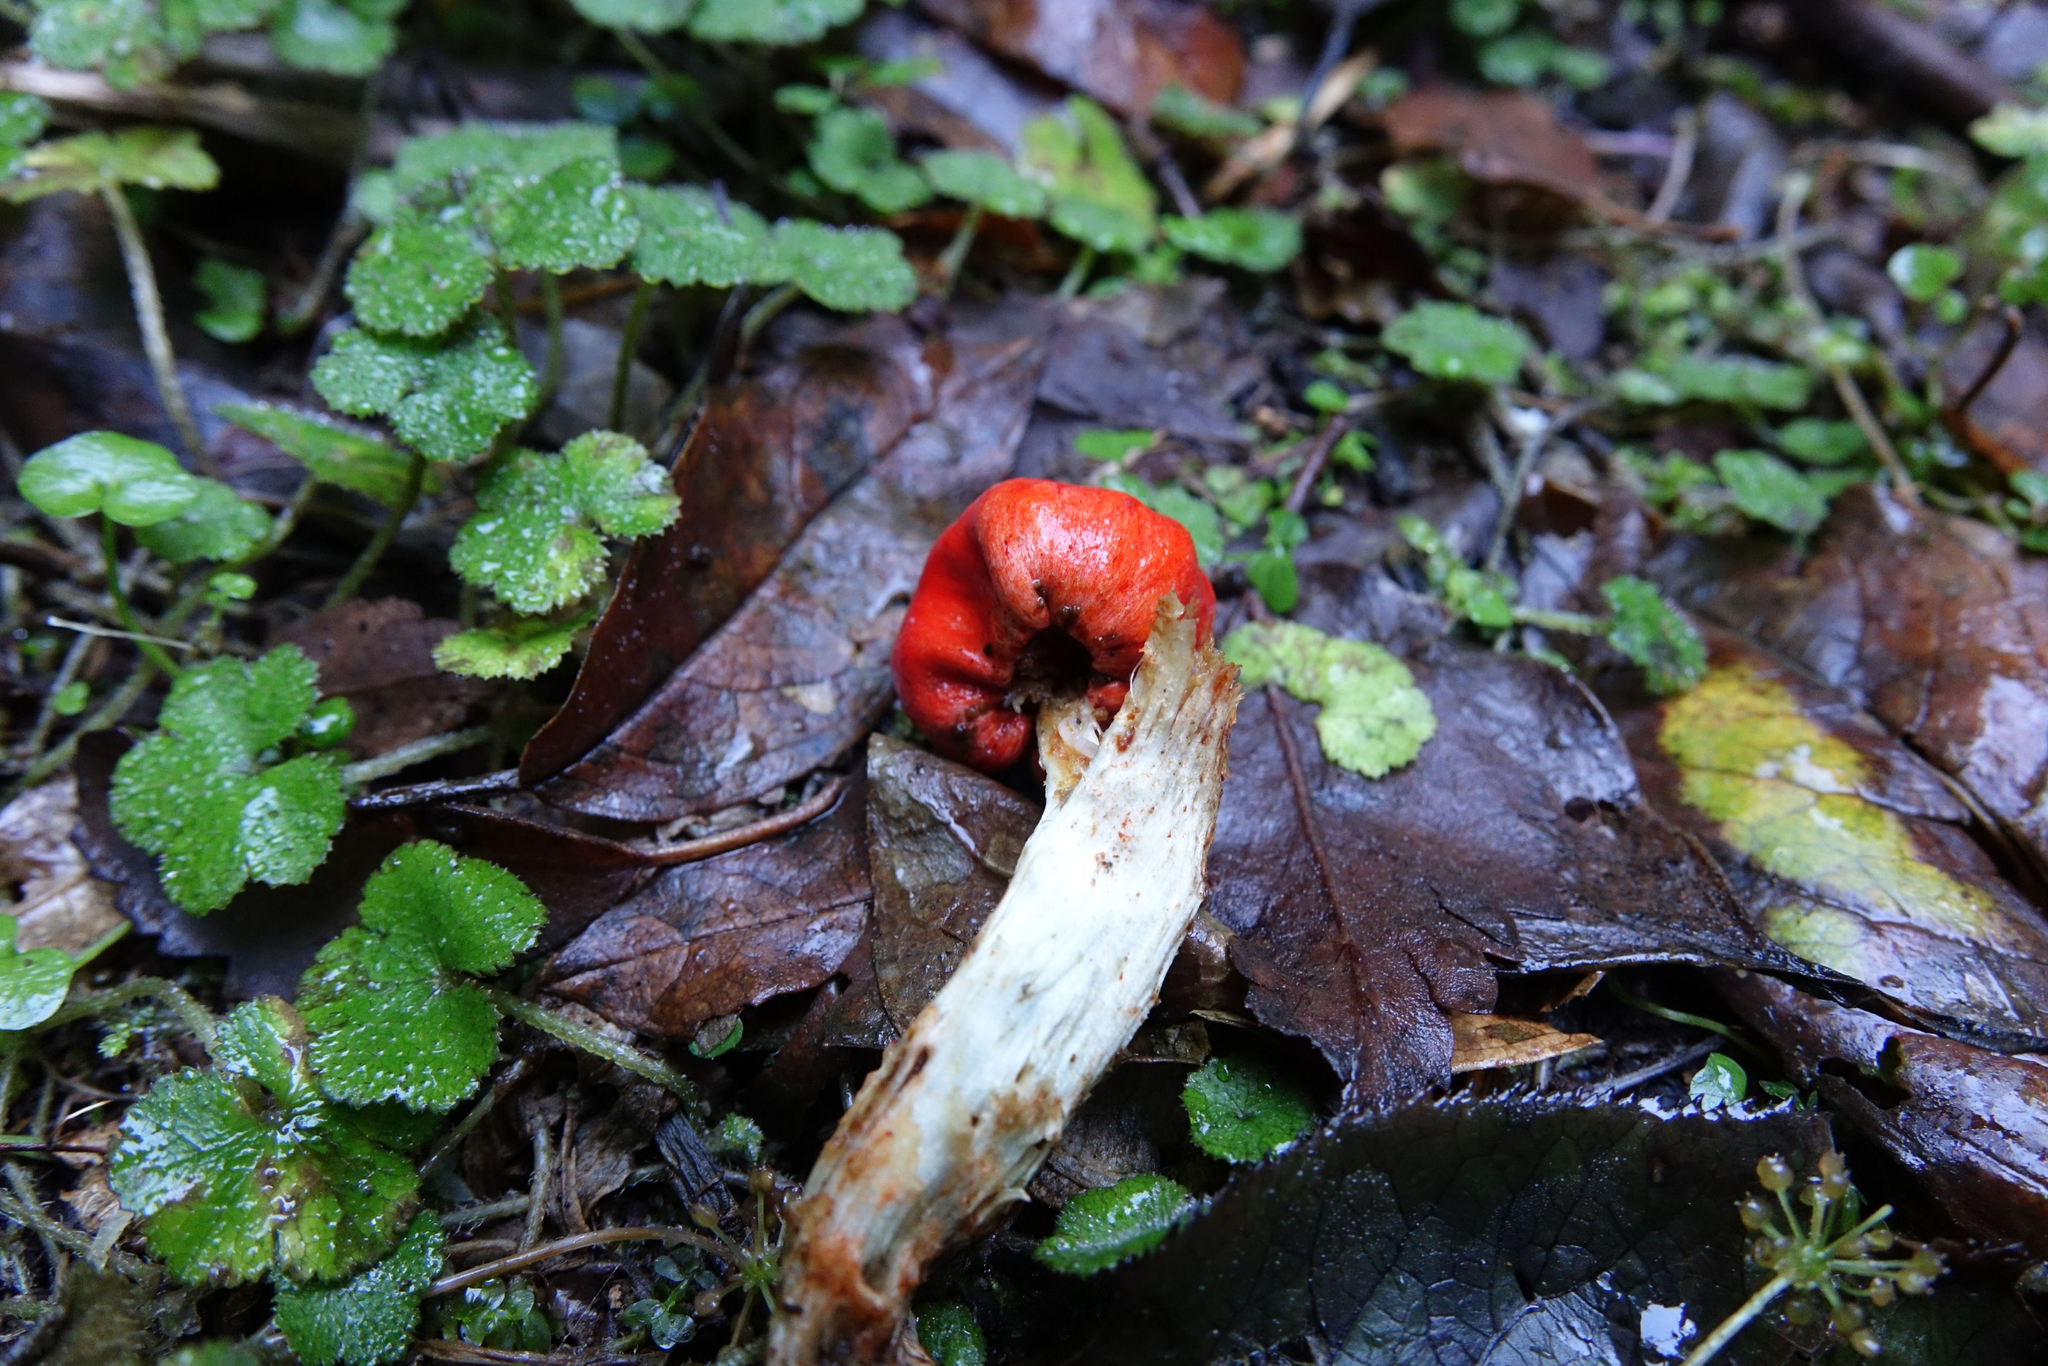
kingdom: Fungi
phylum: Basidiomycota
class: Agaricomycetes
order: Agaricales
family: Strophariaceae
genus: Leratiomyces
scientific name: Leratiomyces erythrocephalus
